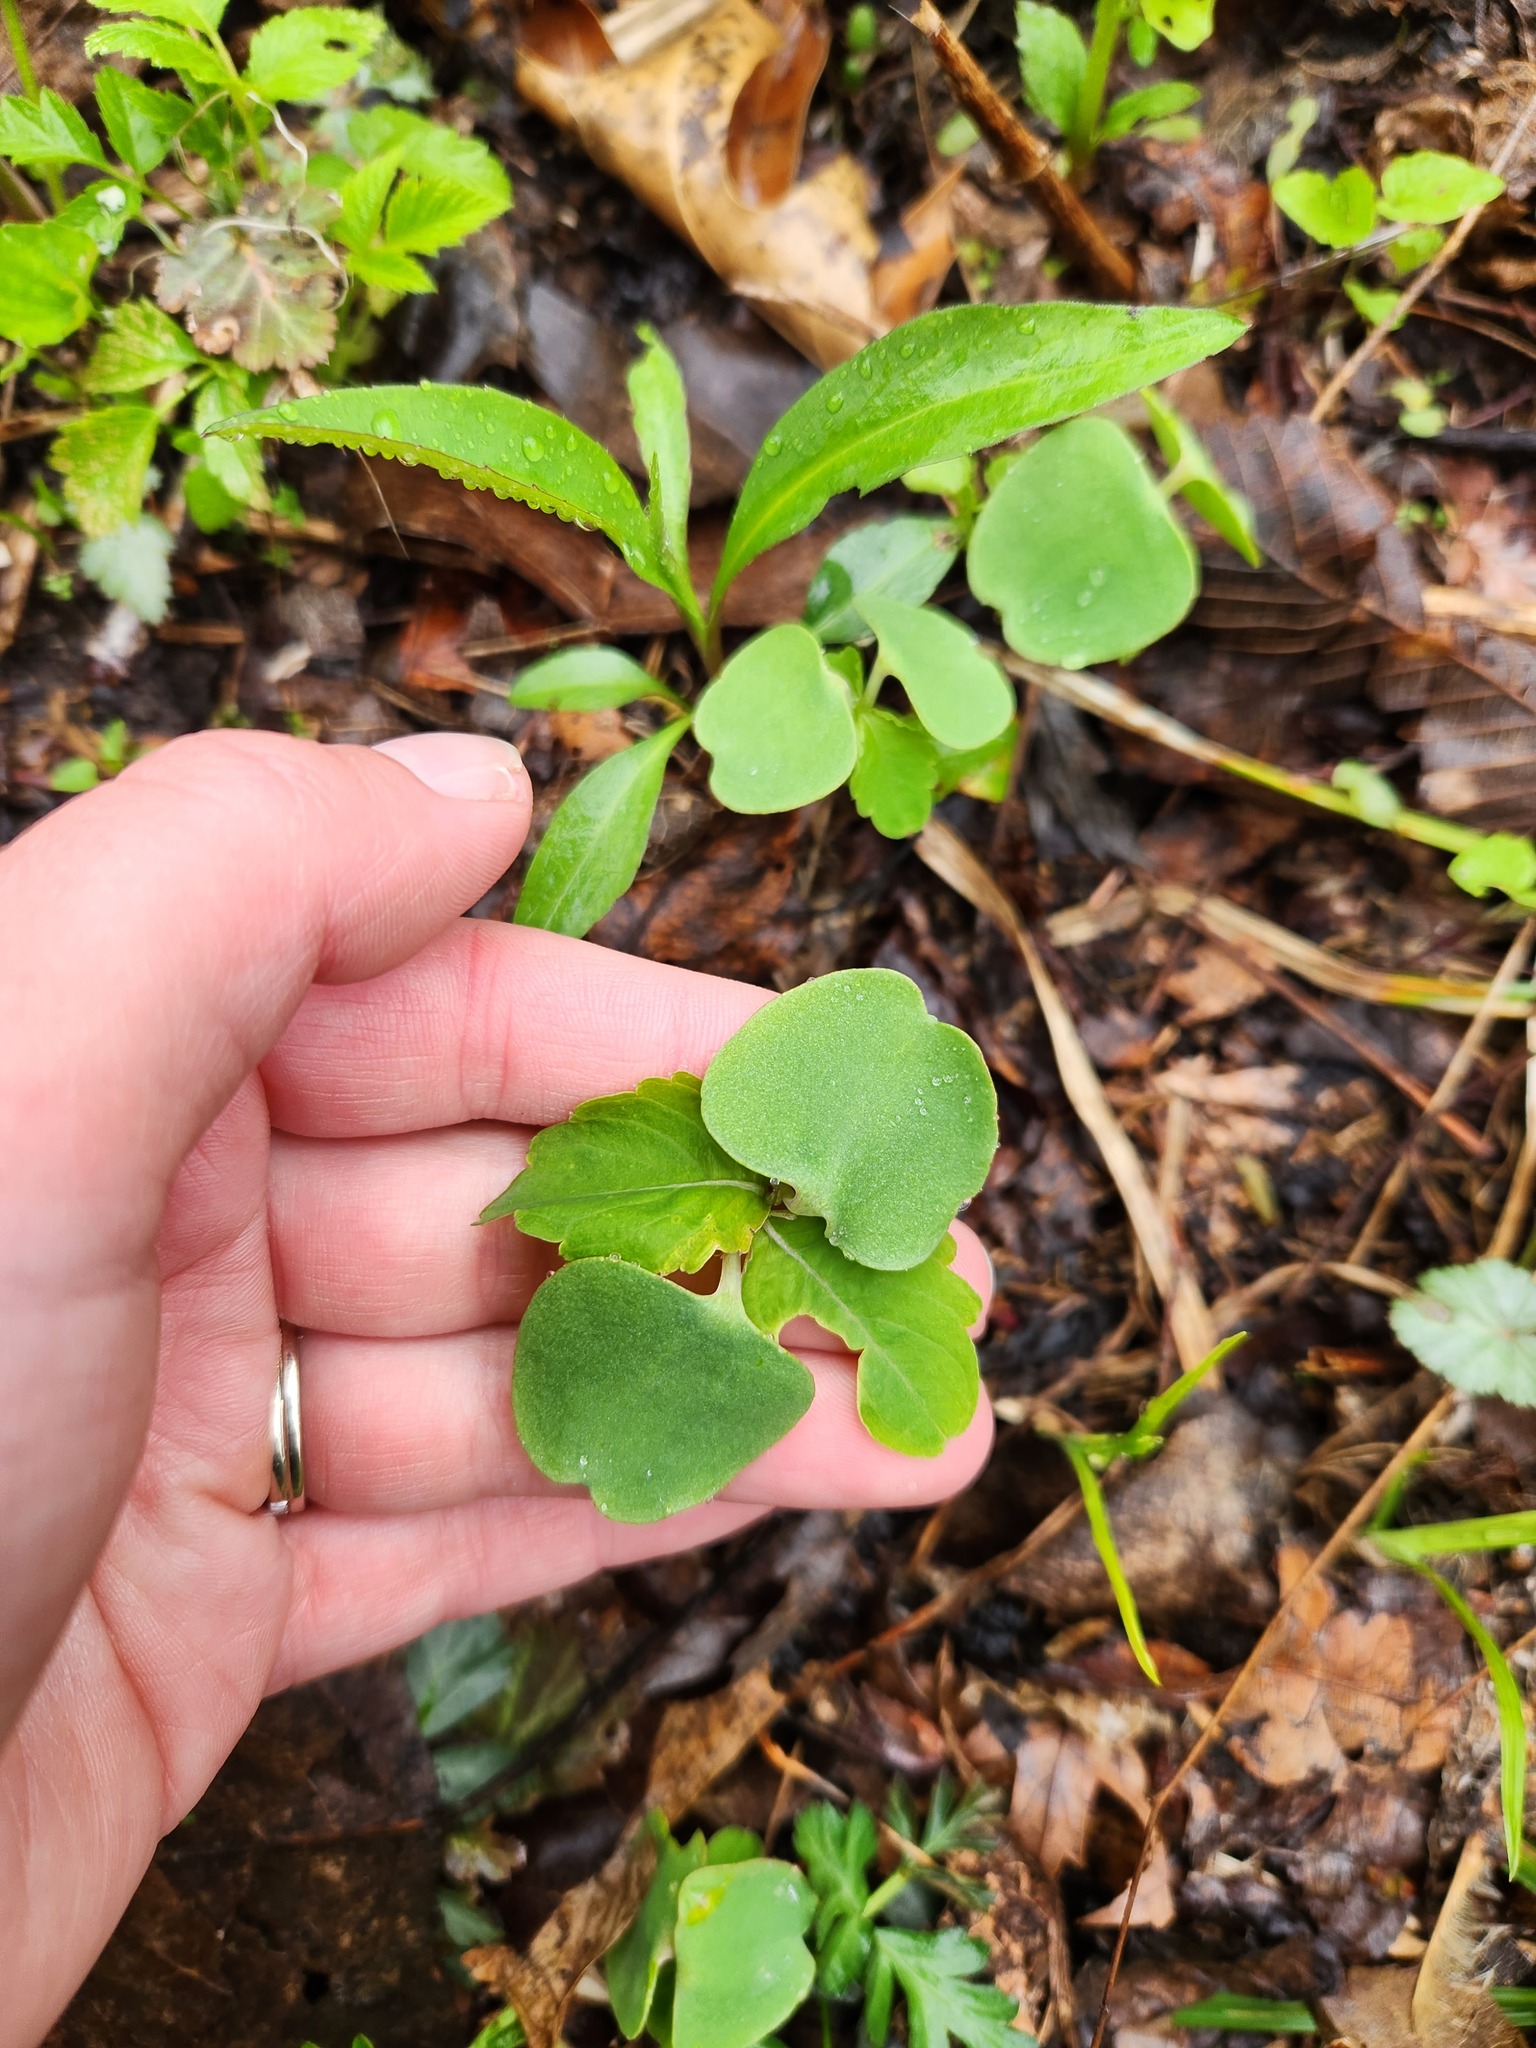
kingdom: Plantae
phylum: Tracheophyta
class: Magnoliopsida
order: Ericales
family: Balsaminaceae
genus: Impatiens
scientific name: Impatiens capensis
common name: Orange balsam
